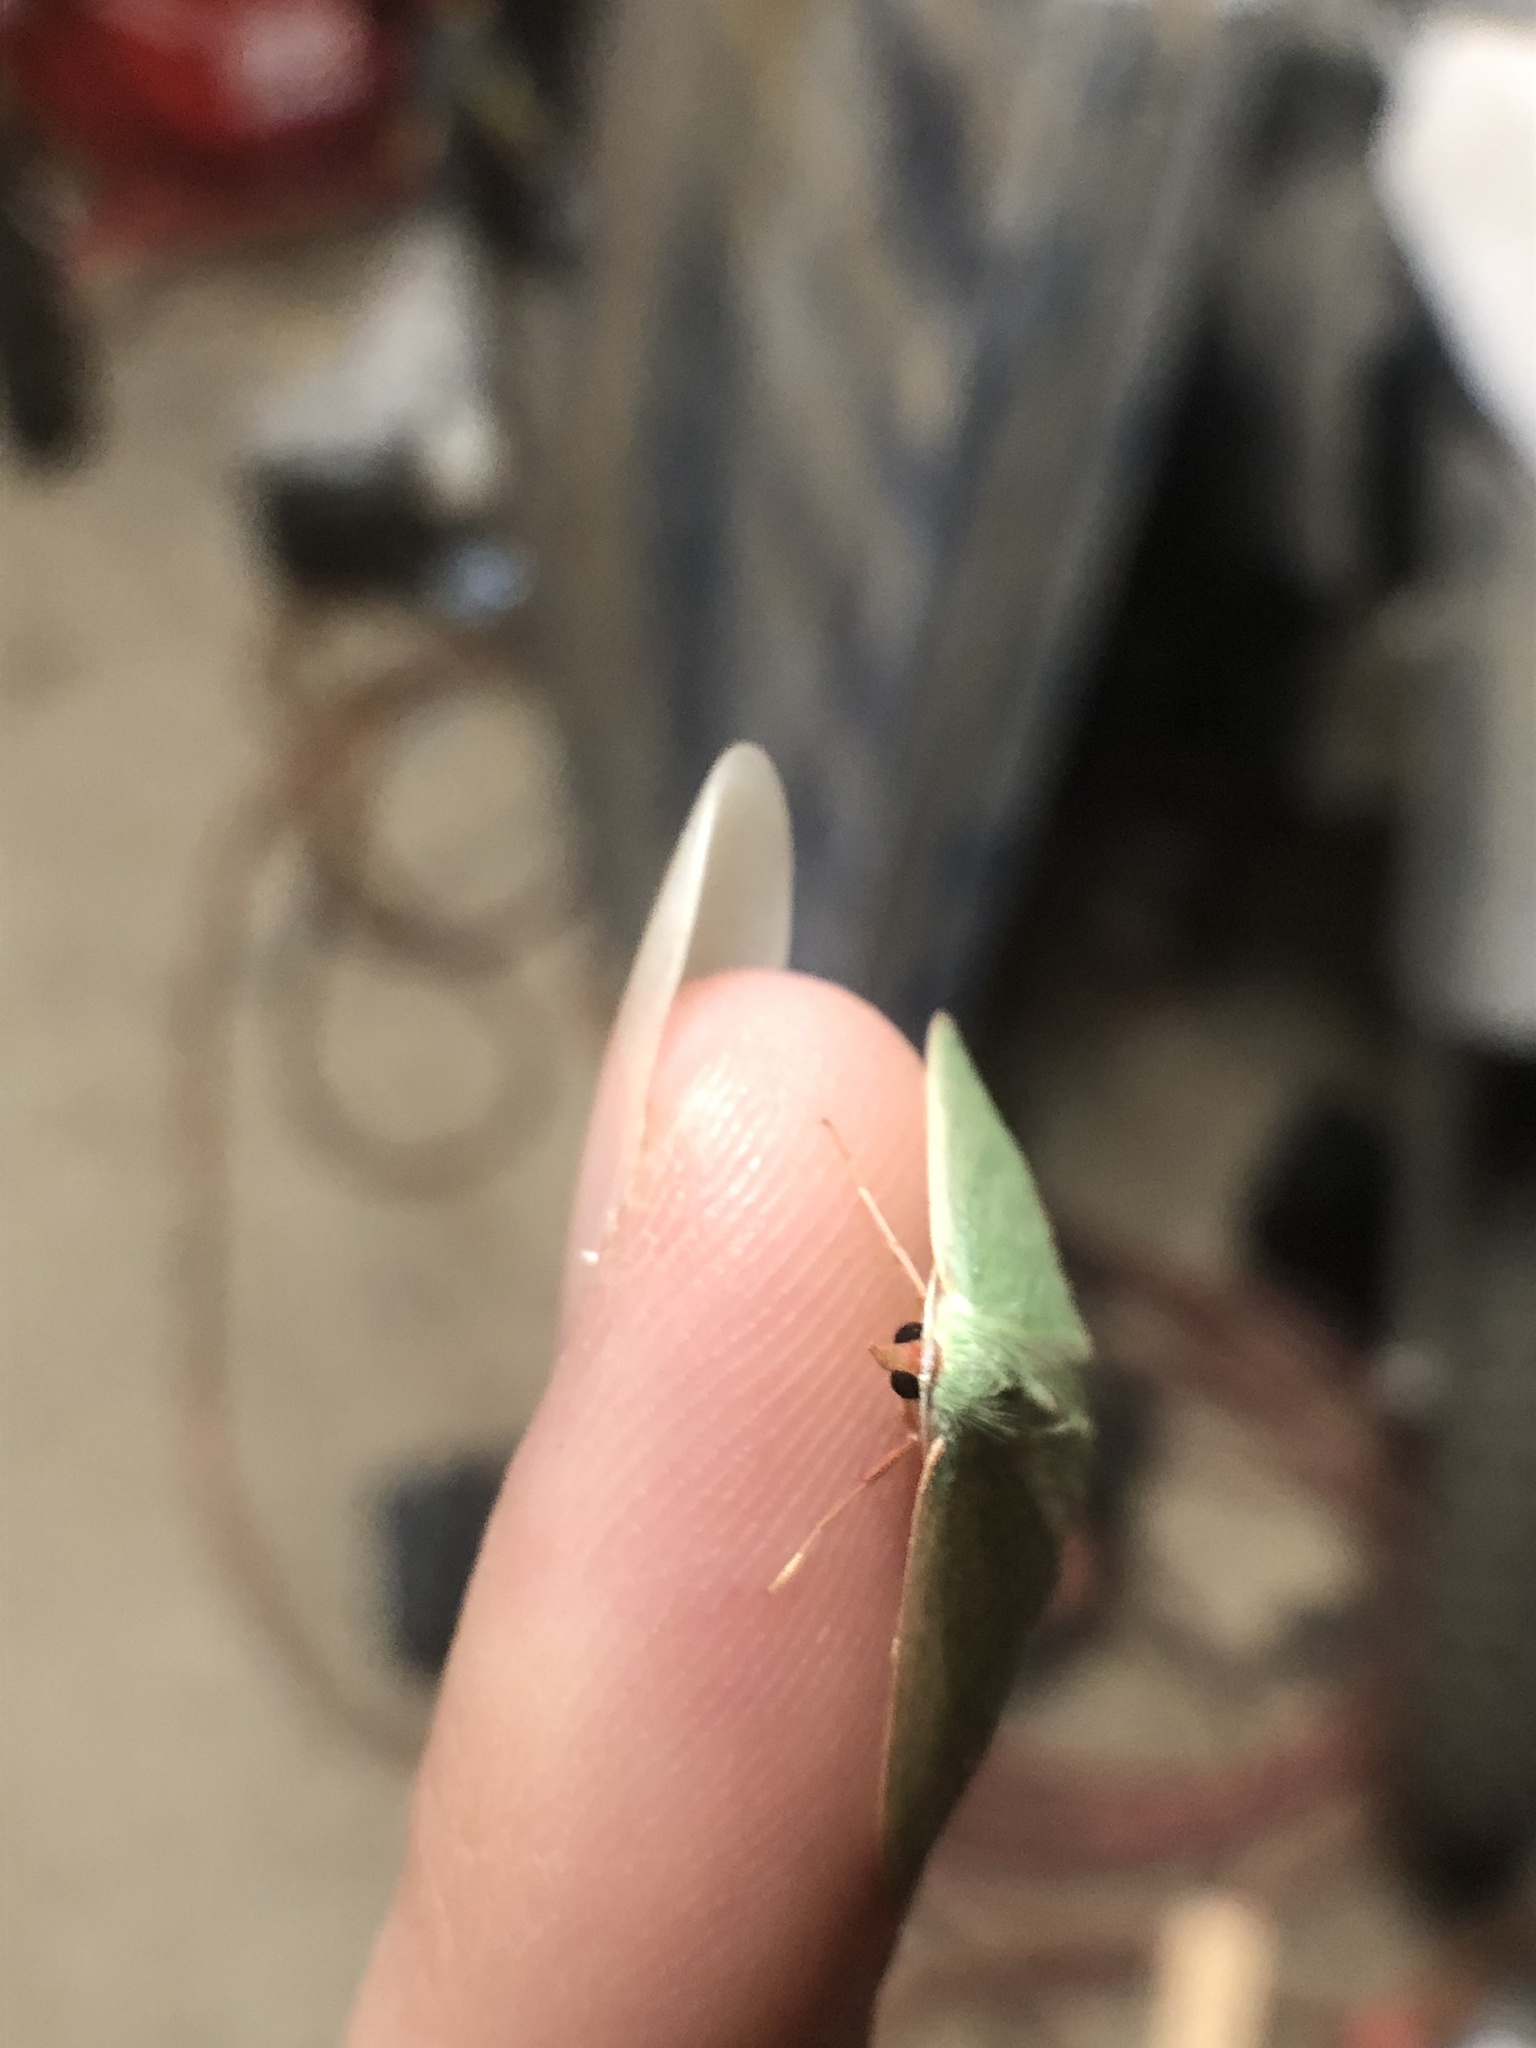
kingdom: Animalia
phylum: Arthropoda
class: Insecta
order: Lepidoptera
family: Geometridae
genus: Nemoria
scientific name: Nemoria leptalea
